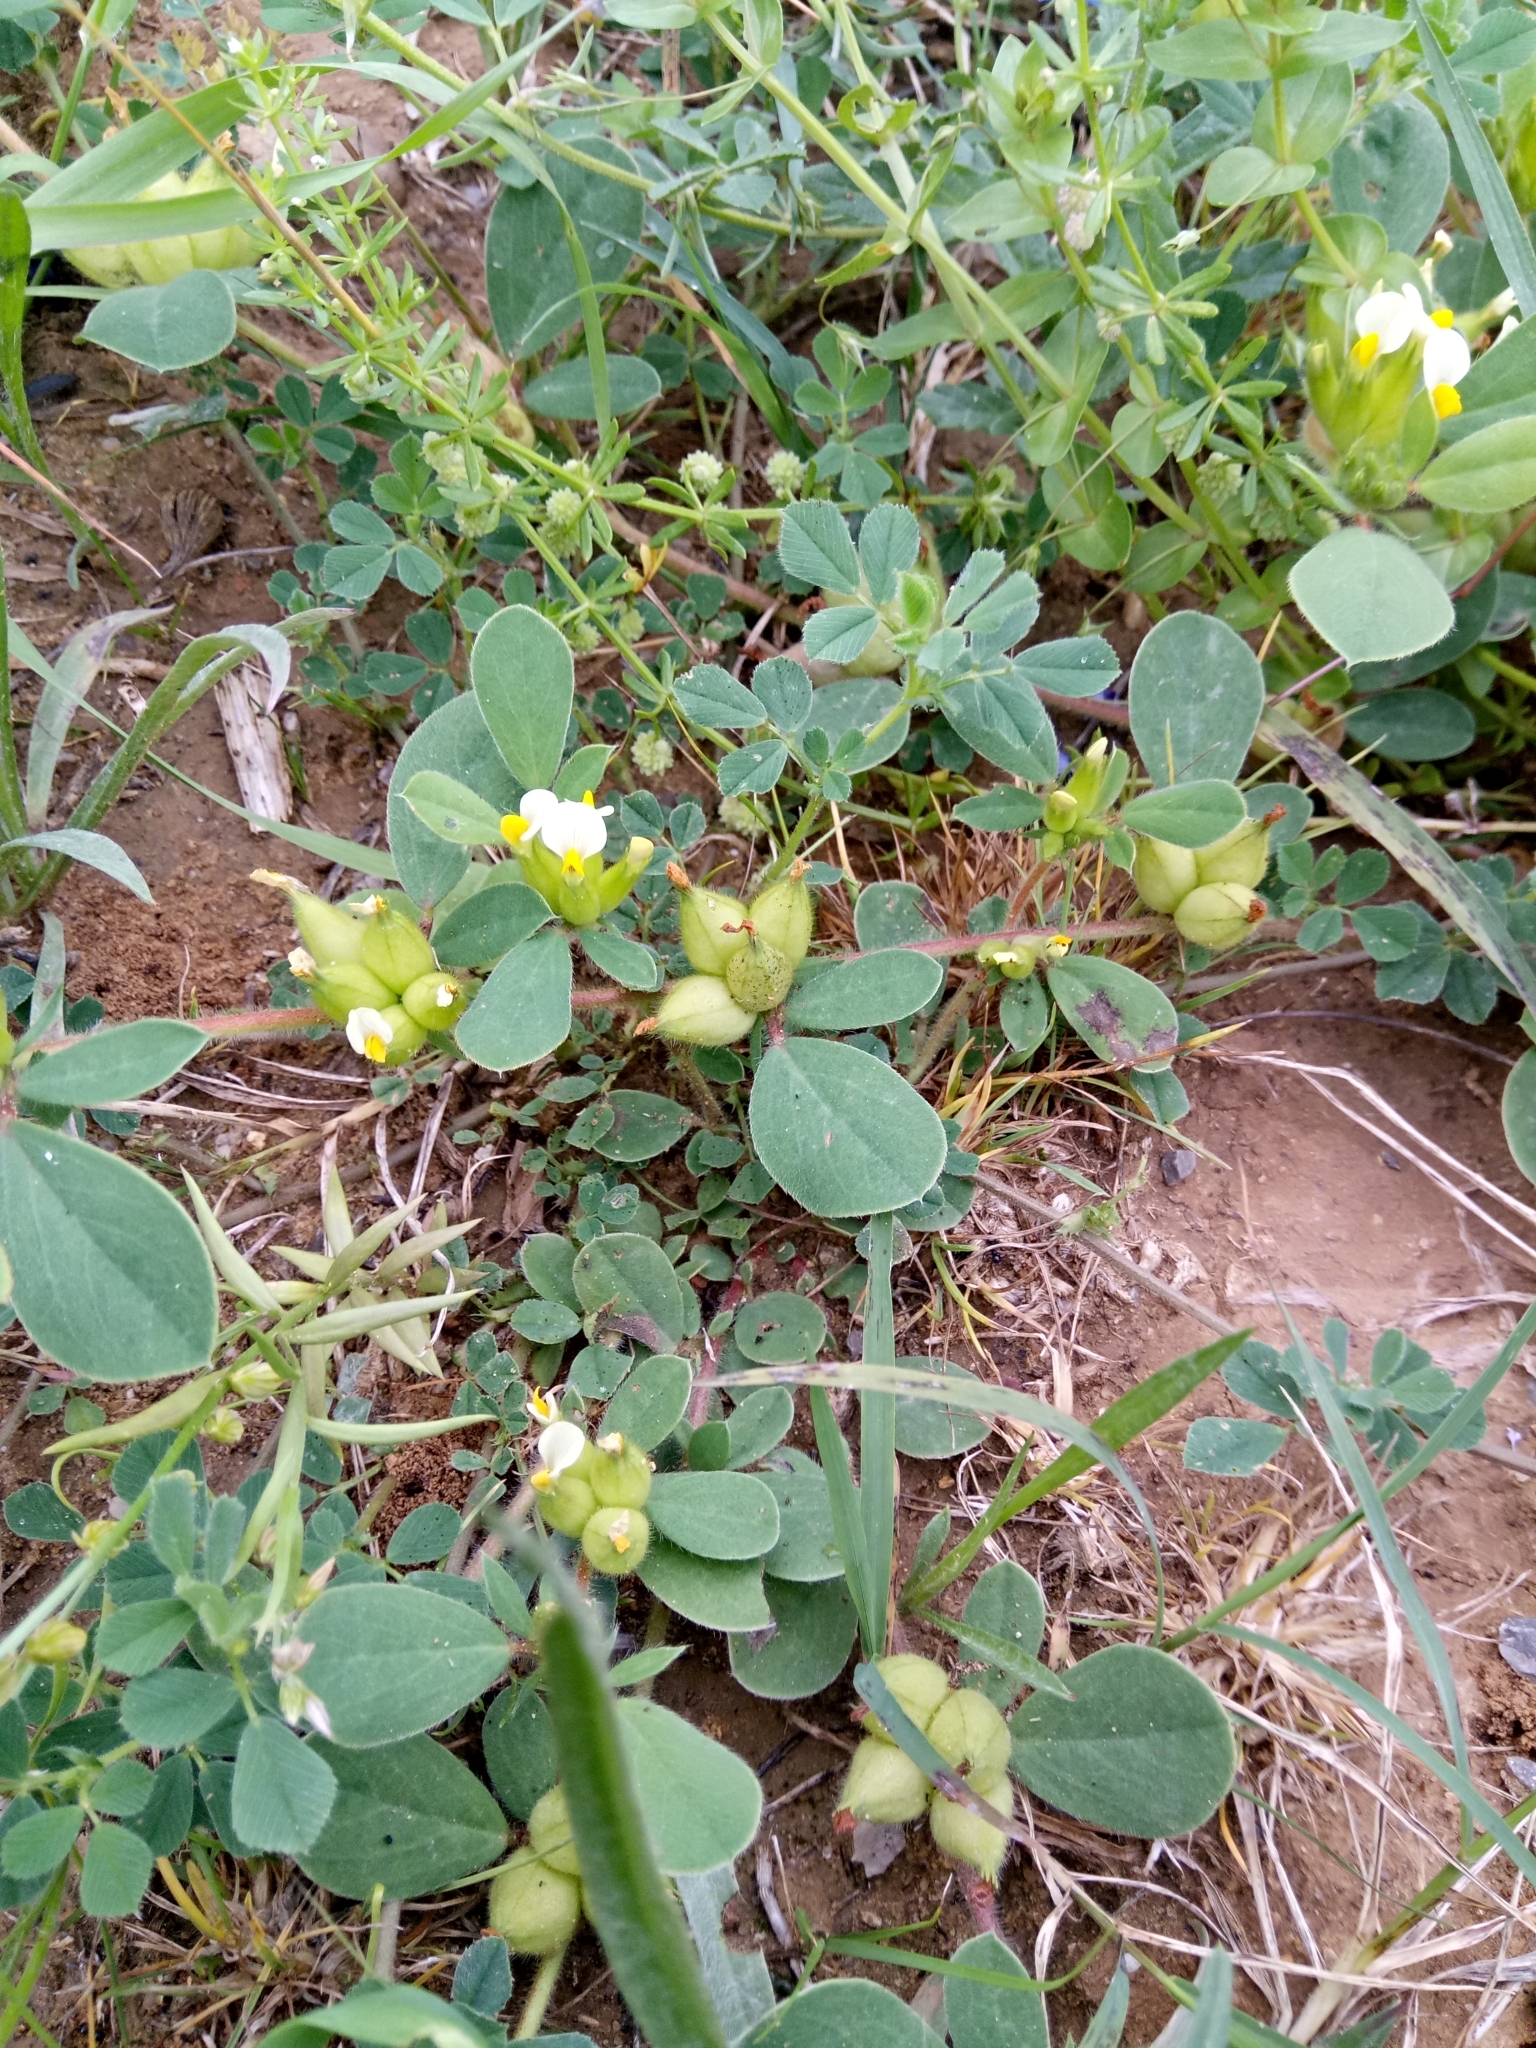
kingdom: Plantae
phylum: Tracheophyta
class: Magnoliopsida
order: Fabales
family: Fabaceae
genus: Tripodion
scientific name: Tripodion tetraphyllum
